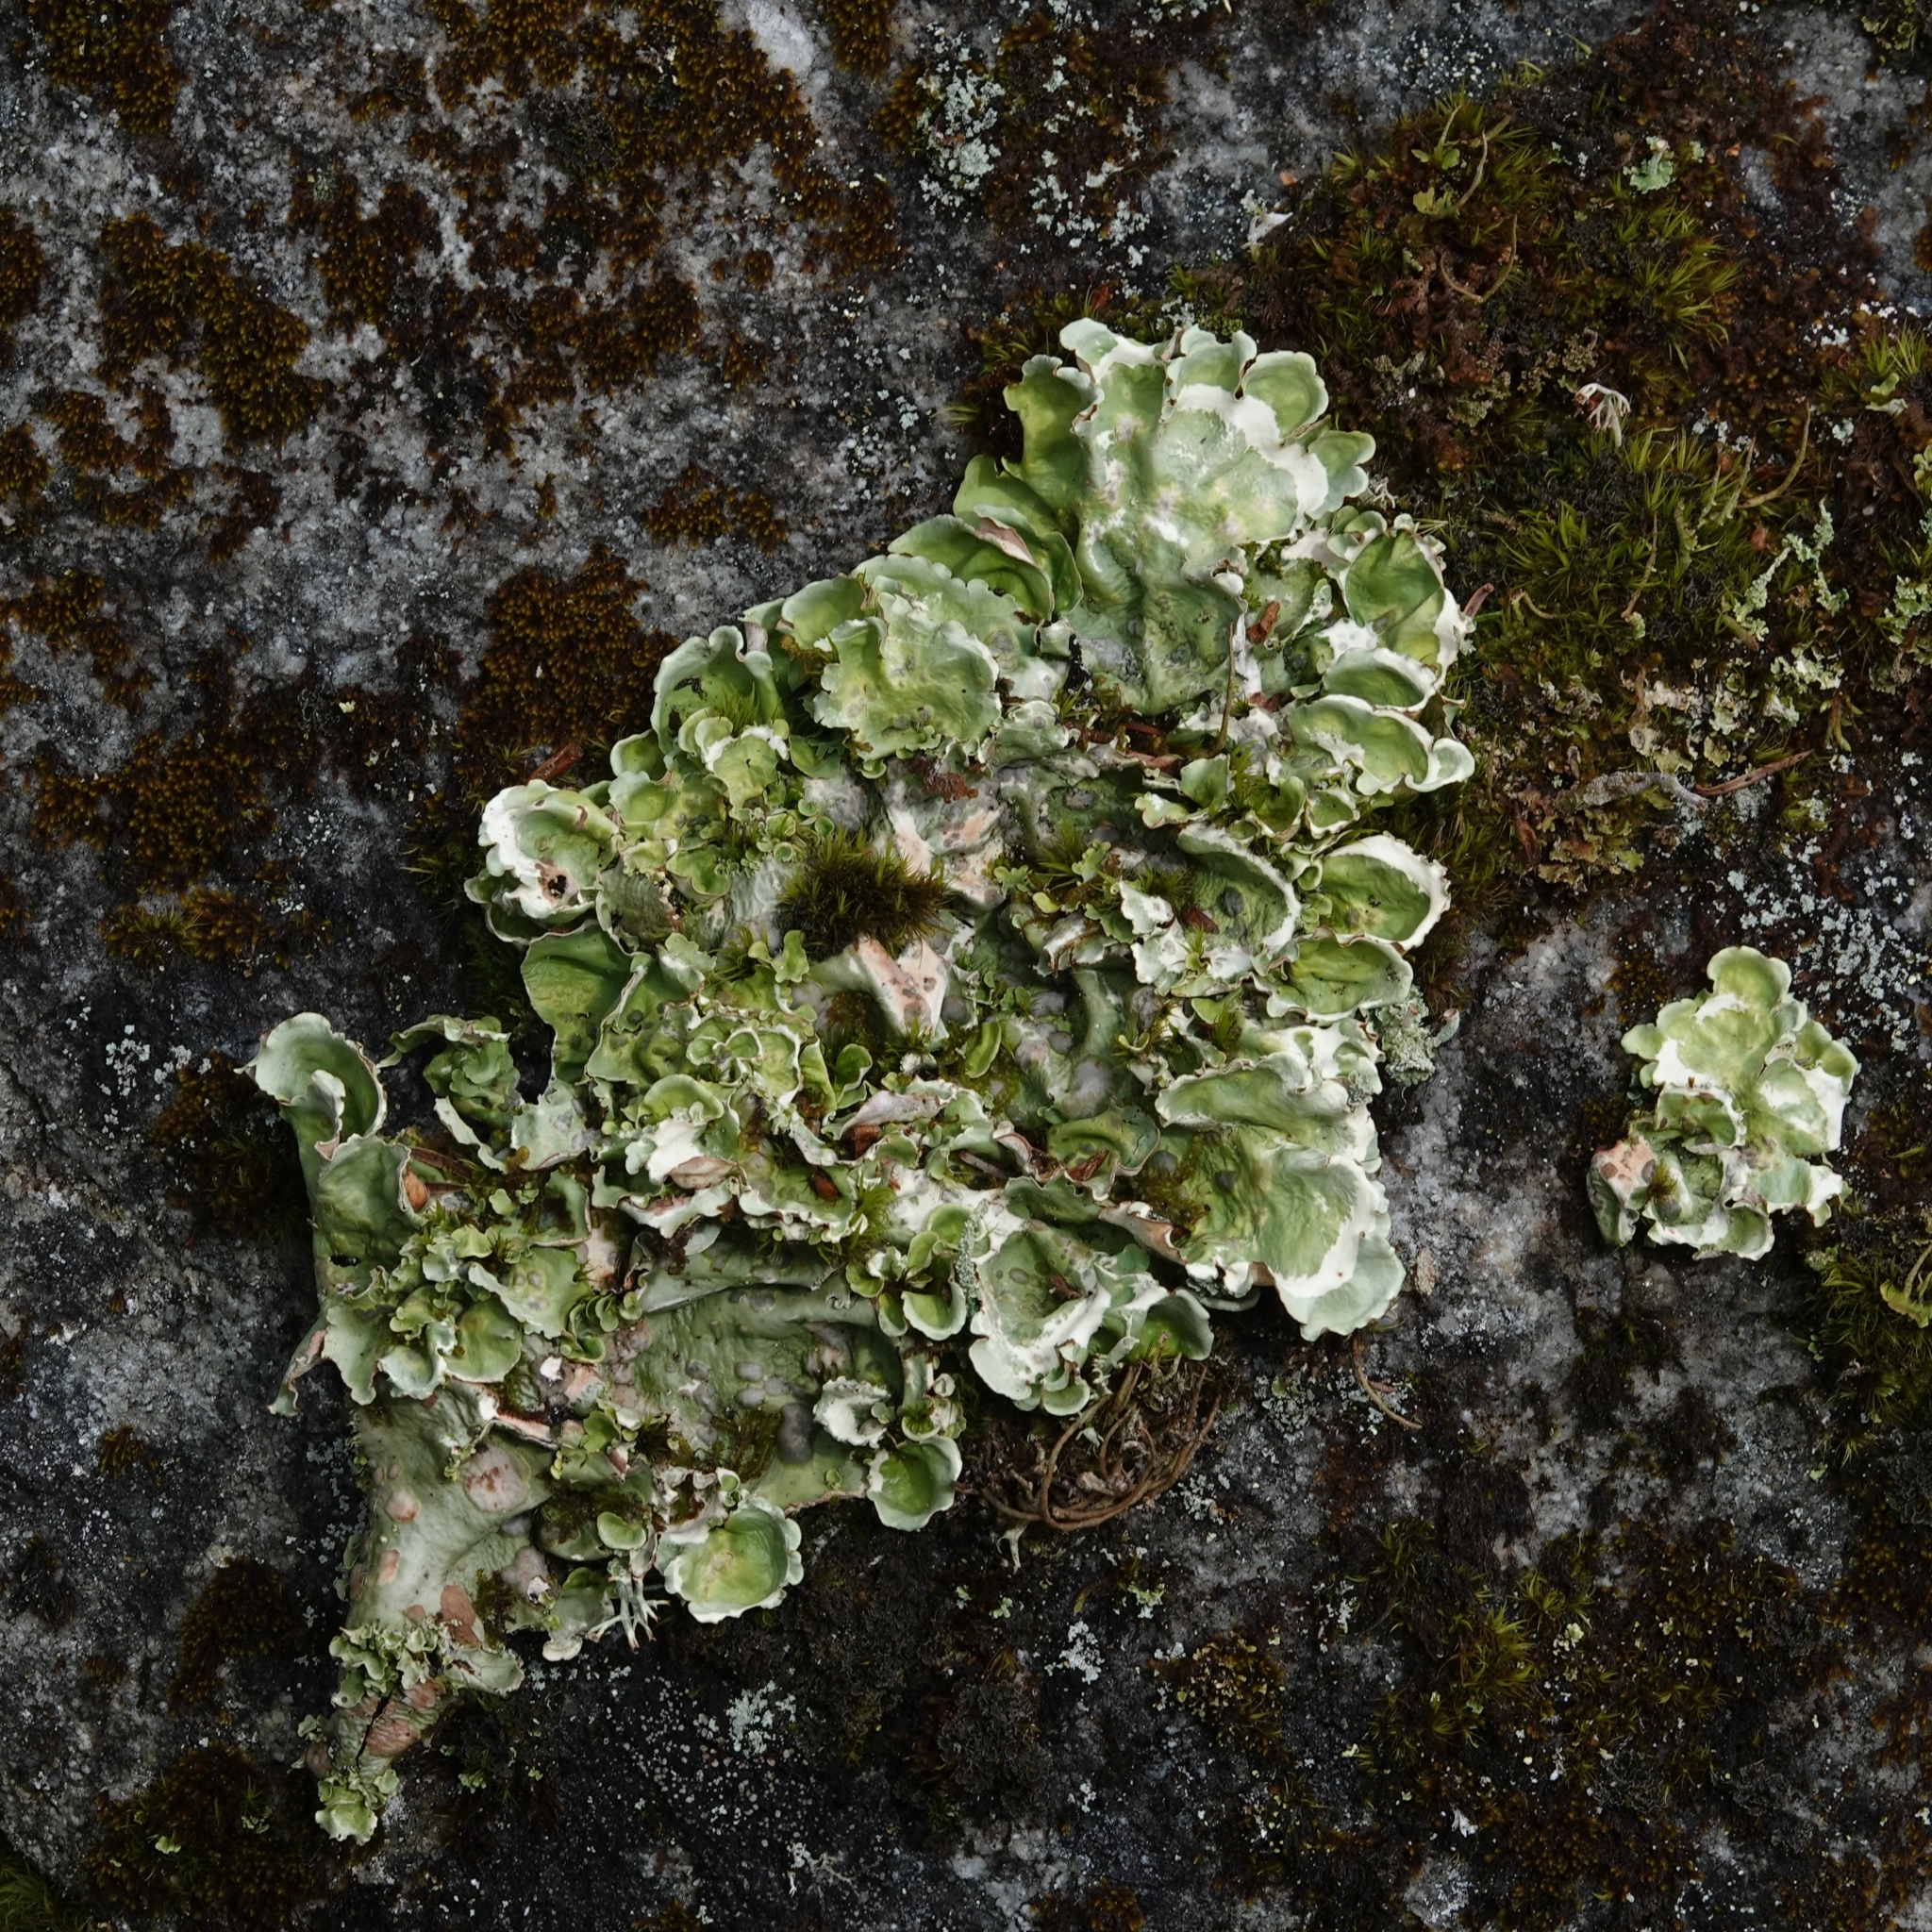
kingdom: Fungi
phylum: Ascomycota
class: Lecanoromycetes
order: Peltigerales
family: Nephromataceae
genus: Nephroma
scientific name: Nephroma arcticum
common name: Arctic kidney-lichen
